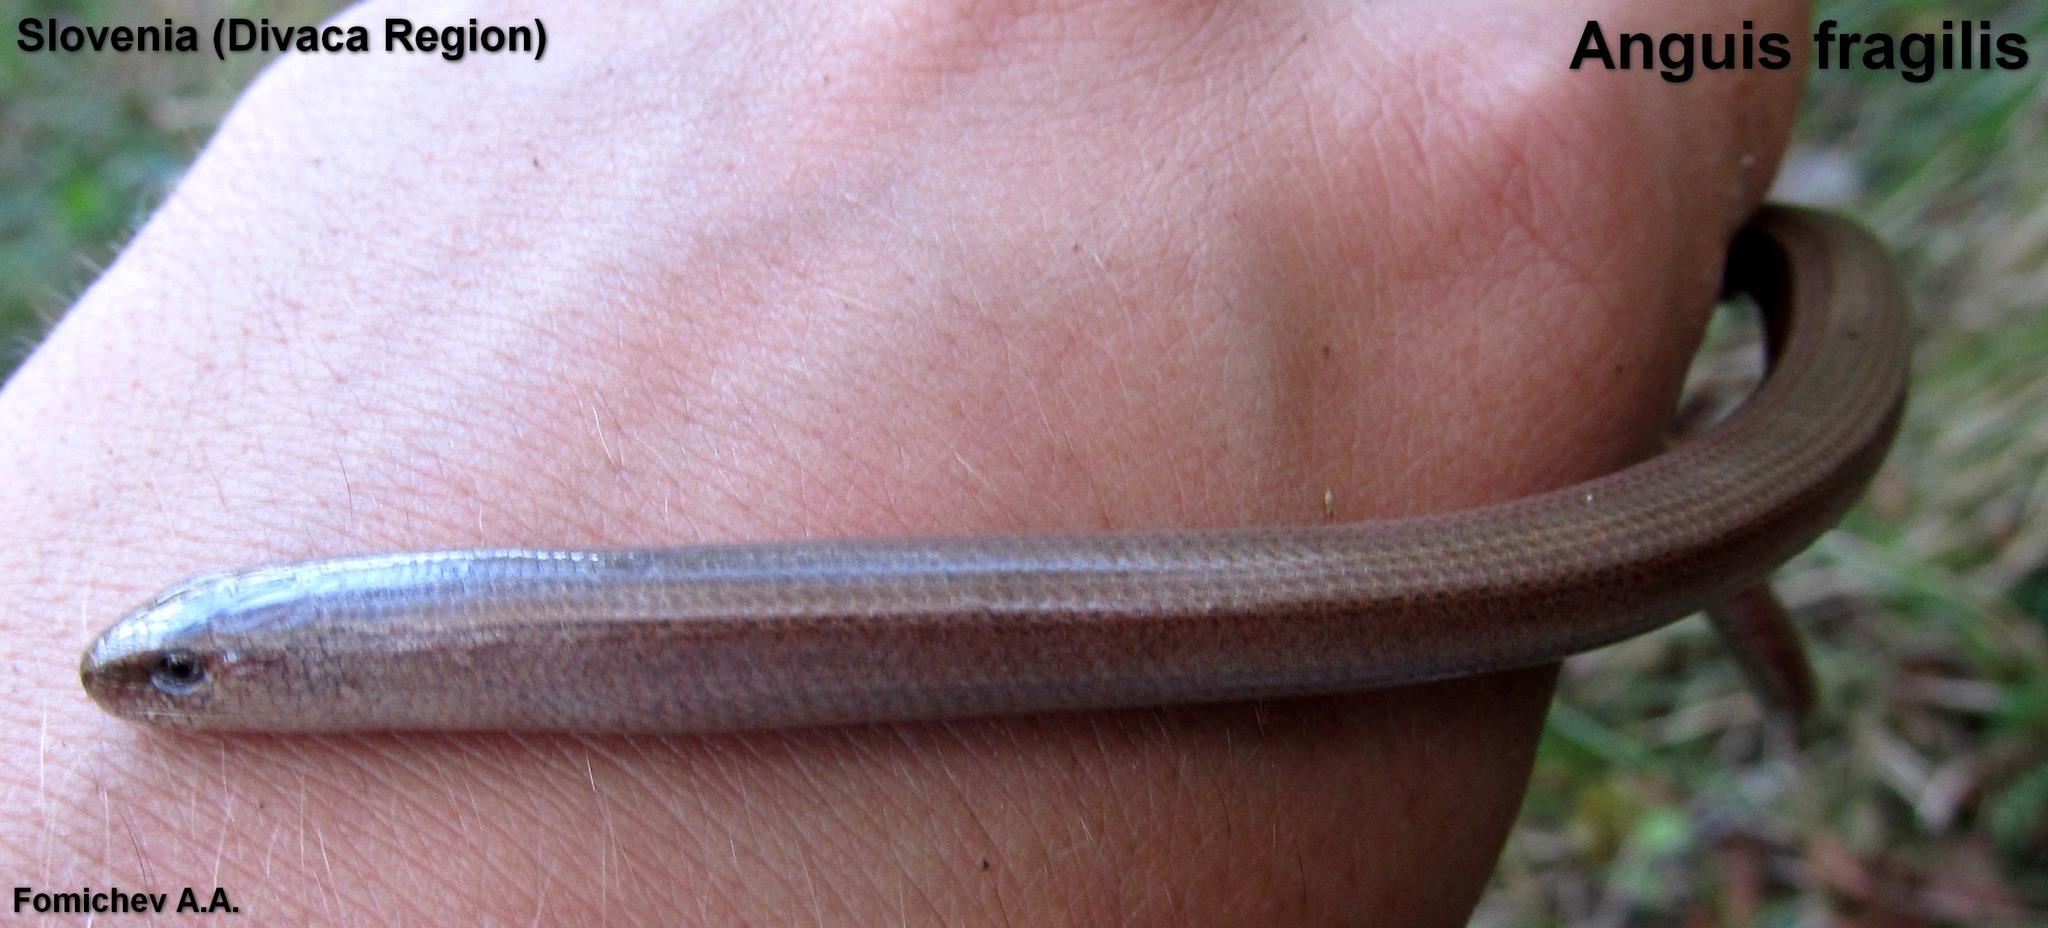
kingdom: Animalia
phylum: Chordata
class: Squamata
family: Anguidae
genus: Anguis
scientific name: Anguis fragilis
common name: Slow worm
